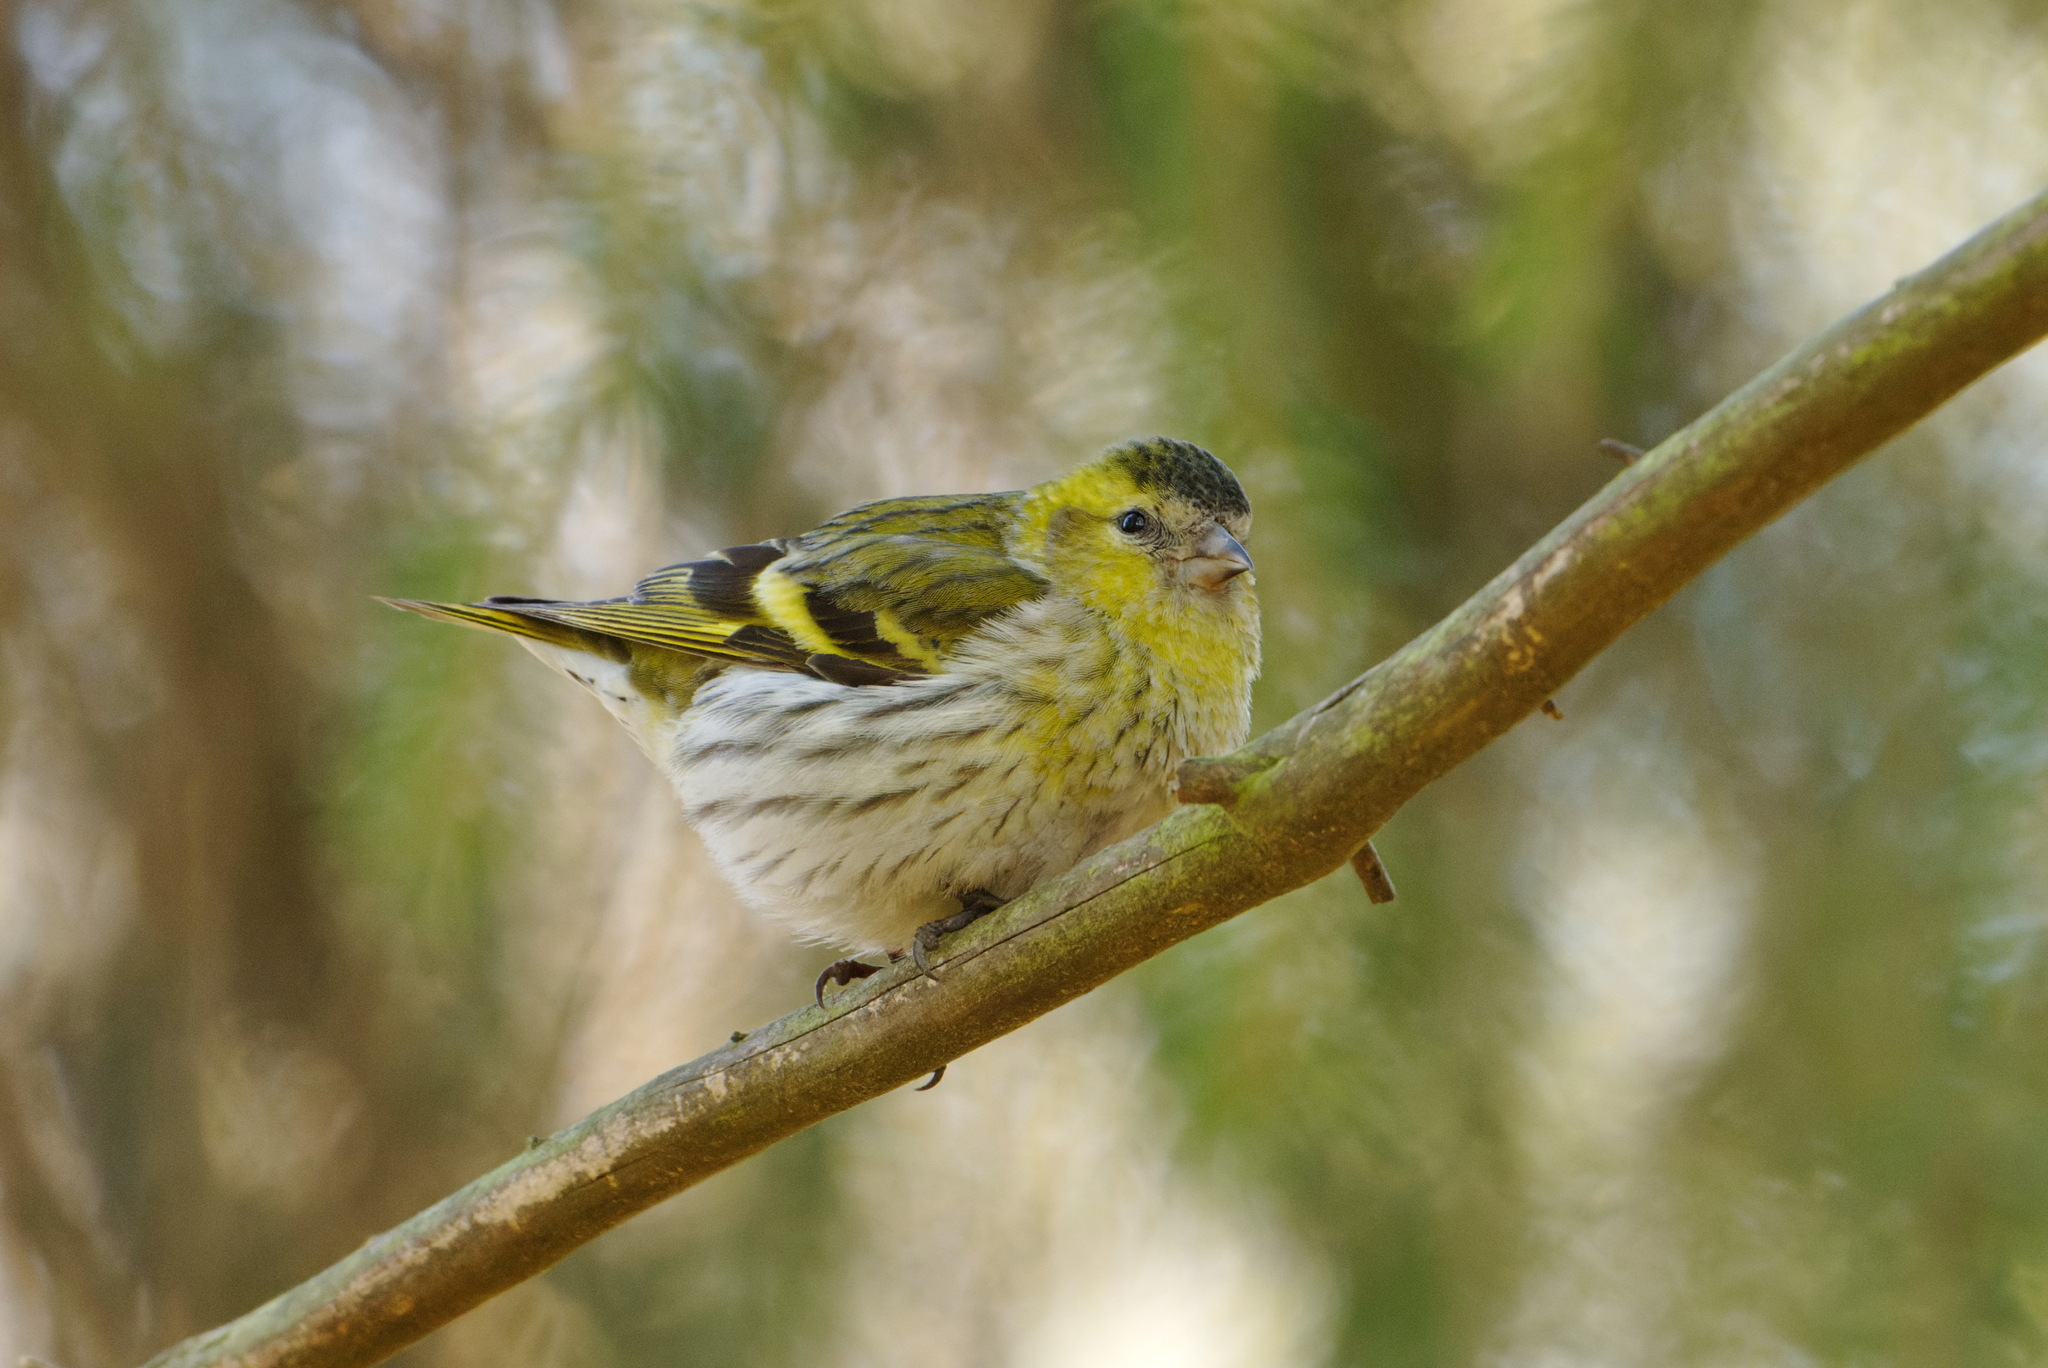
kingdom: Animalia
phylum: Chordata
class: Aves
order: Passeriformes
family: Fringillidae
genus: Spinus
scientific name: Spinus spinus
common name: Eurasian siskin
